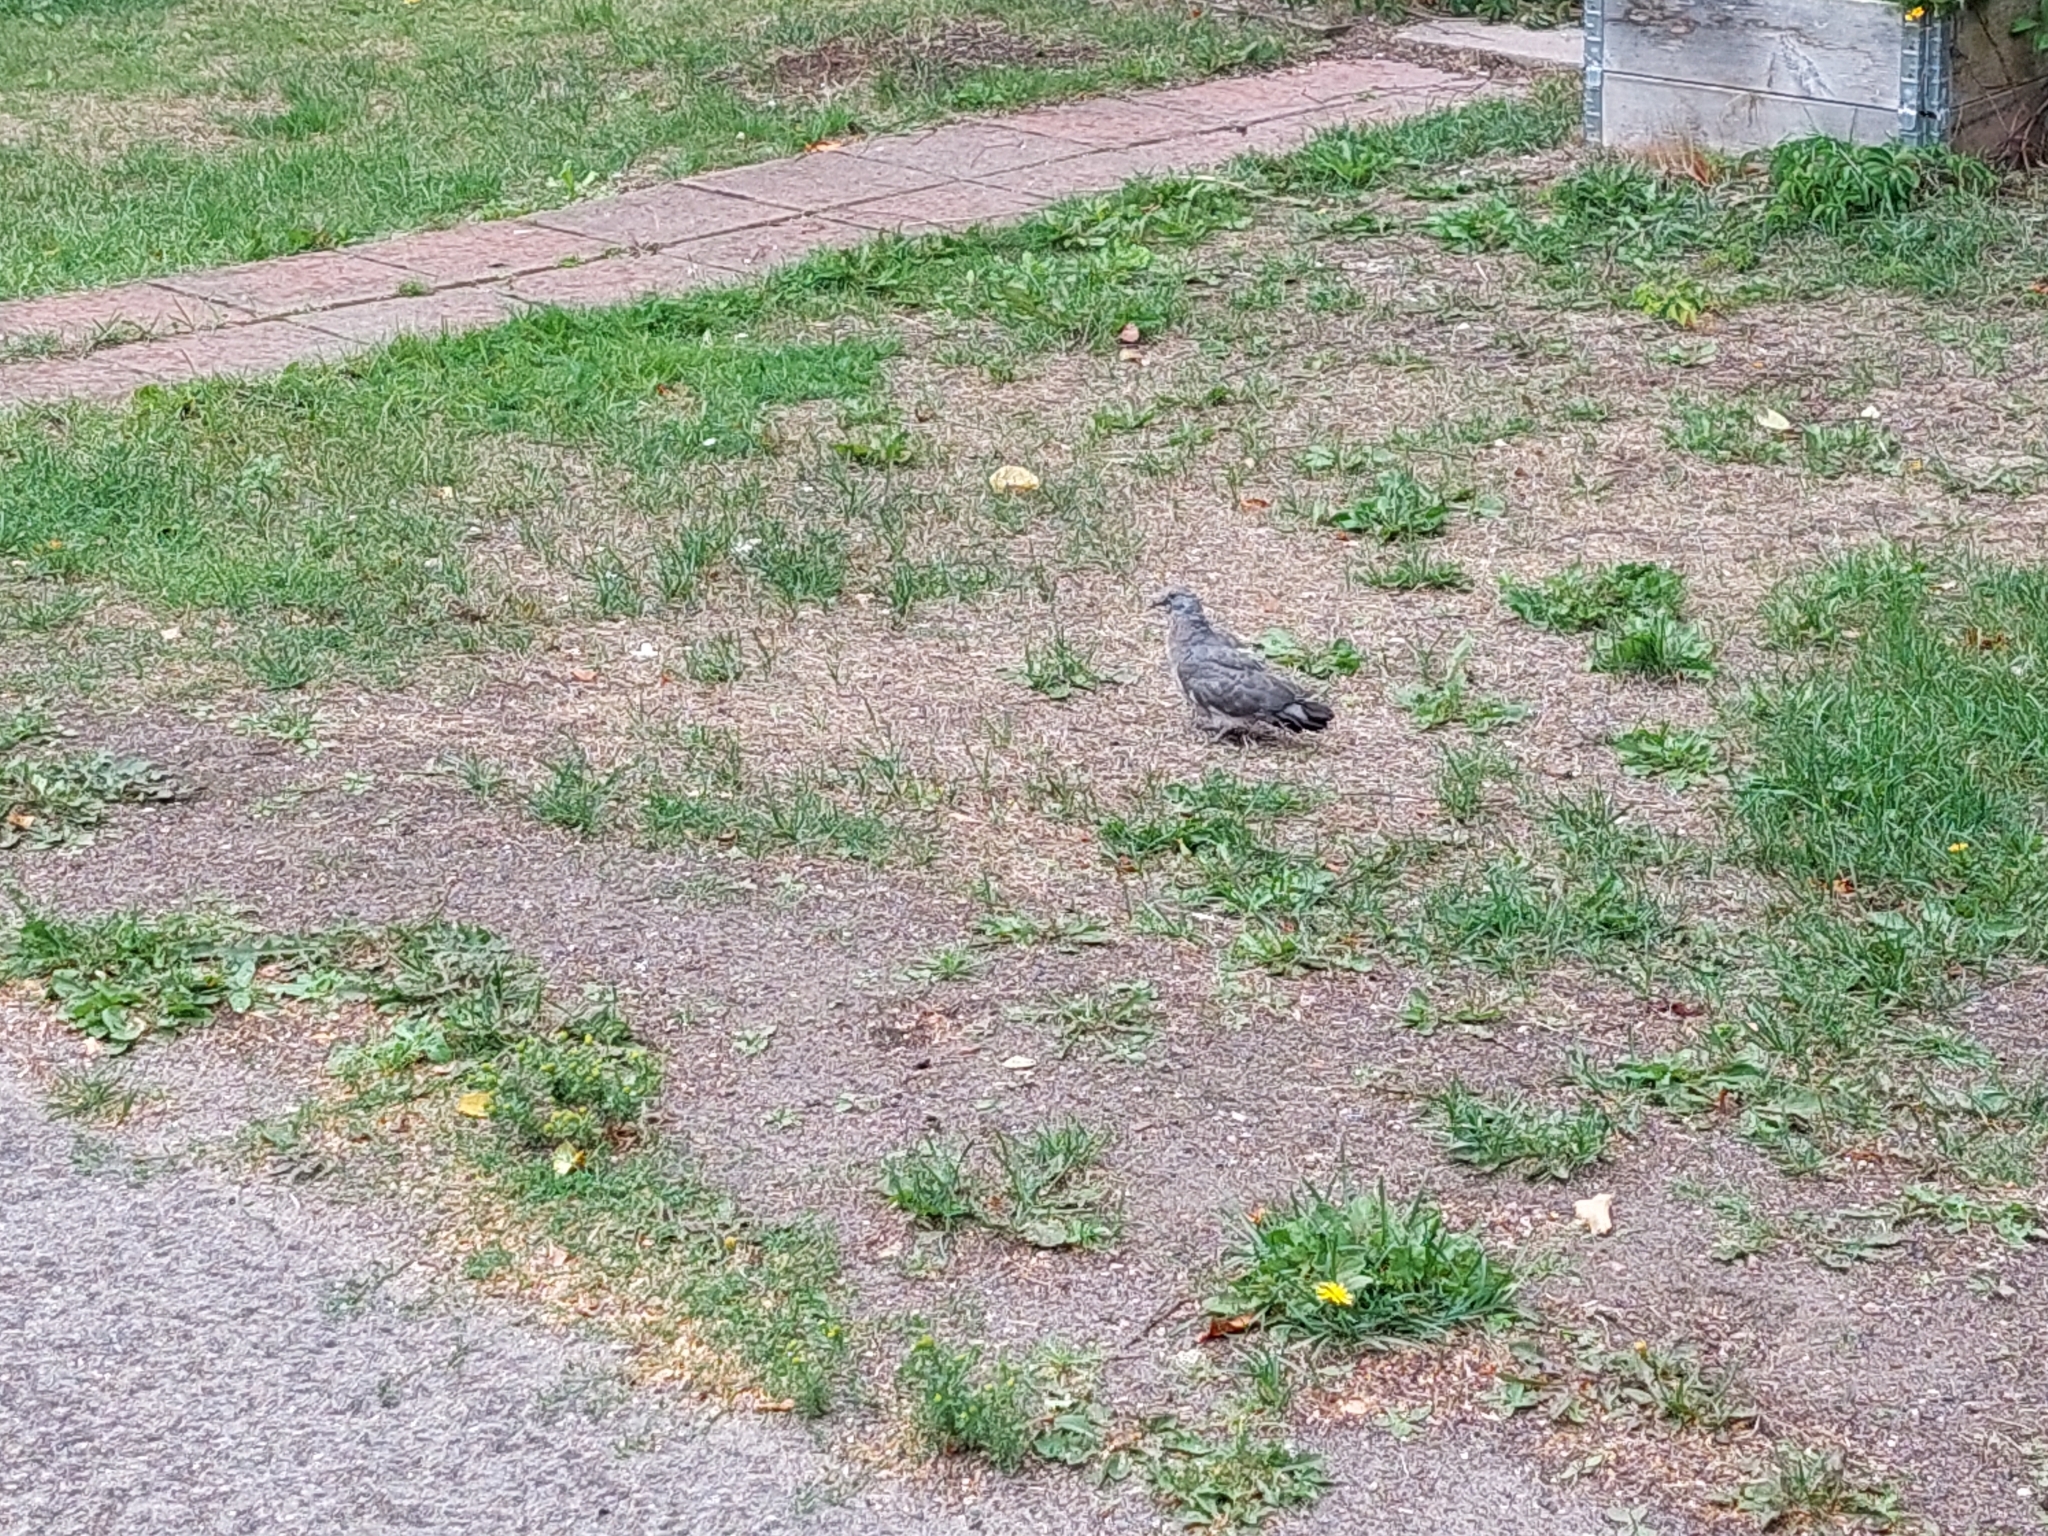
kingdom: Animalia
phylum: Chordata
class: Aves
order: Columbiformes
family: Columbidae
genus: Columba
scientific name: Columba palumbus
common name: Common wood pigeon
